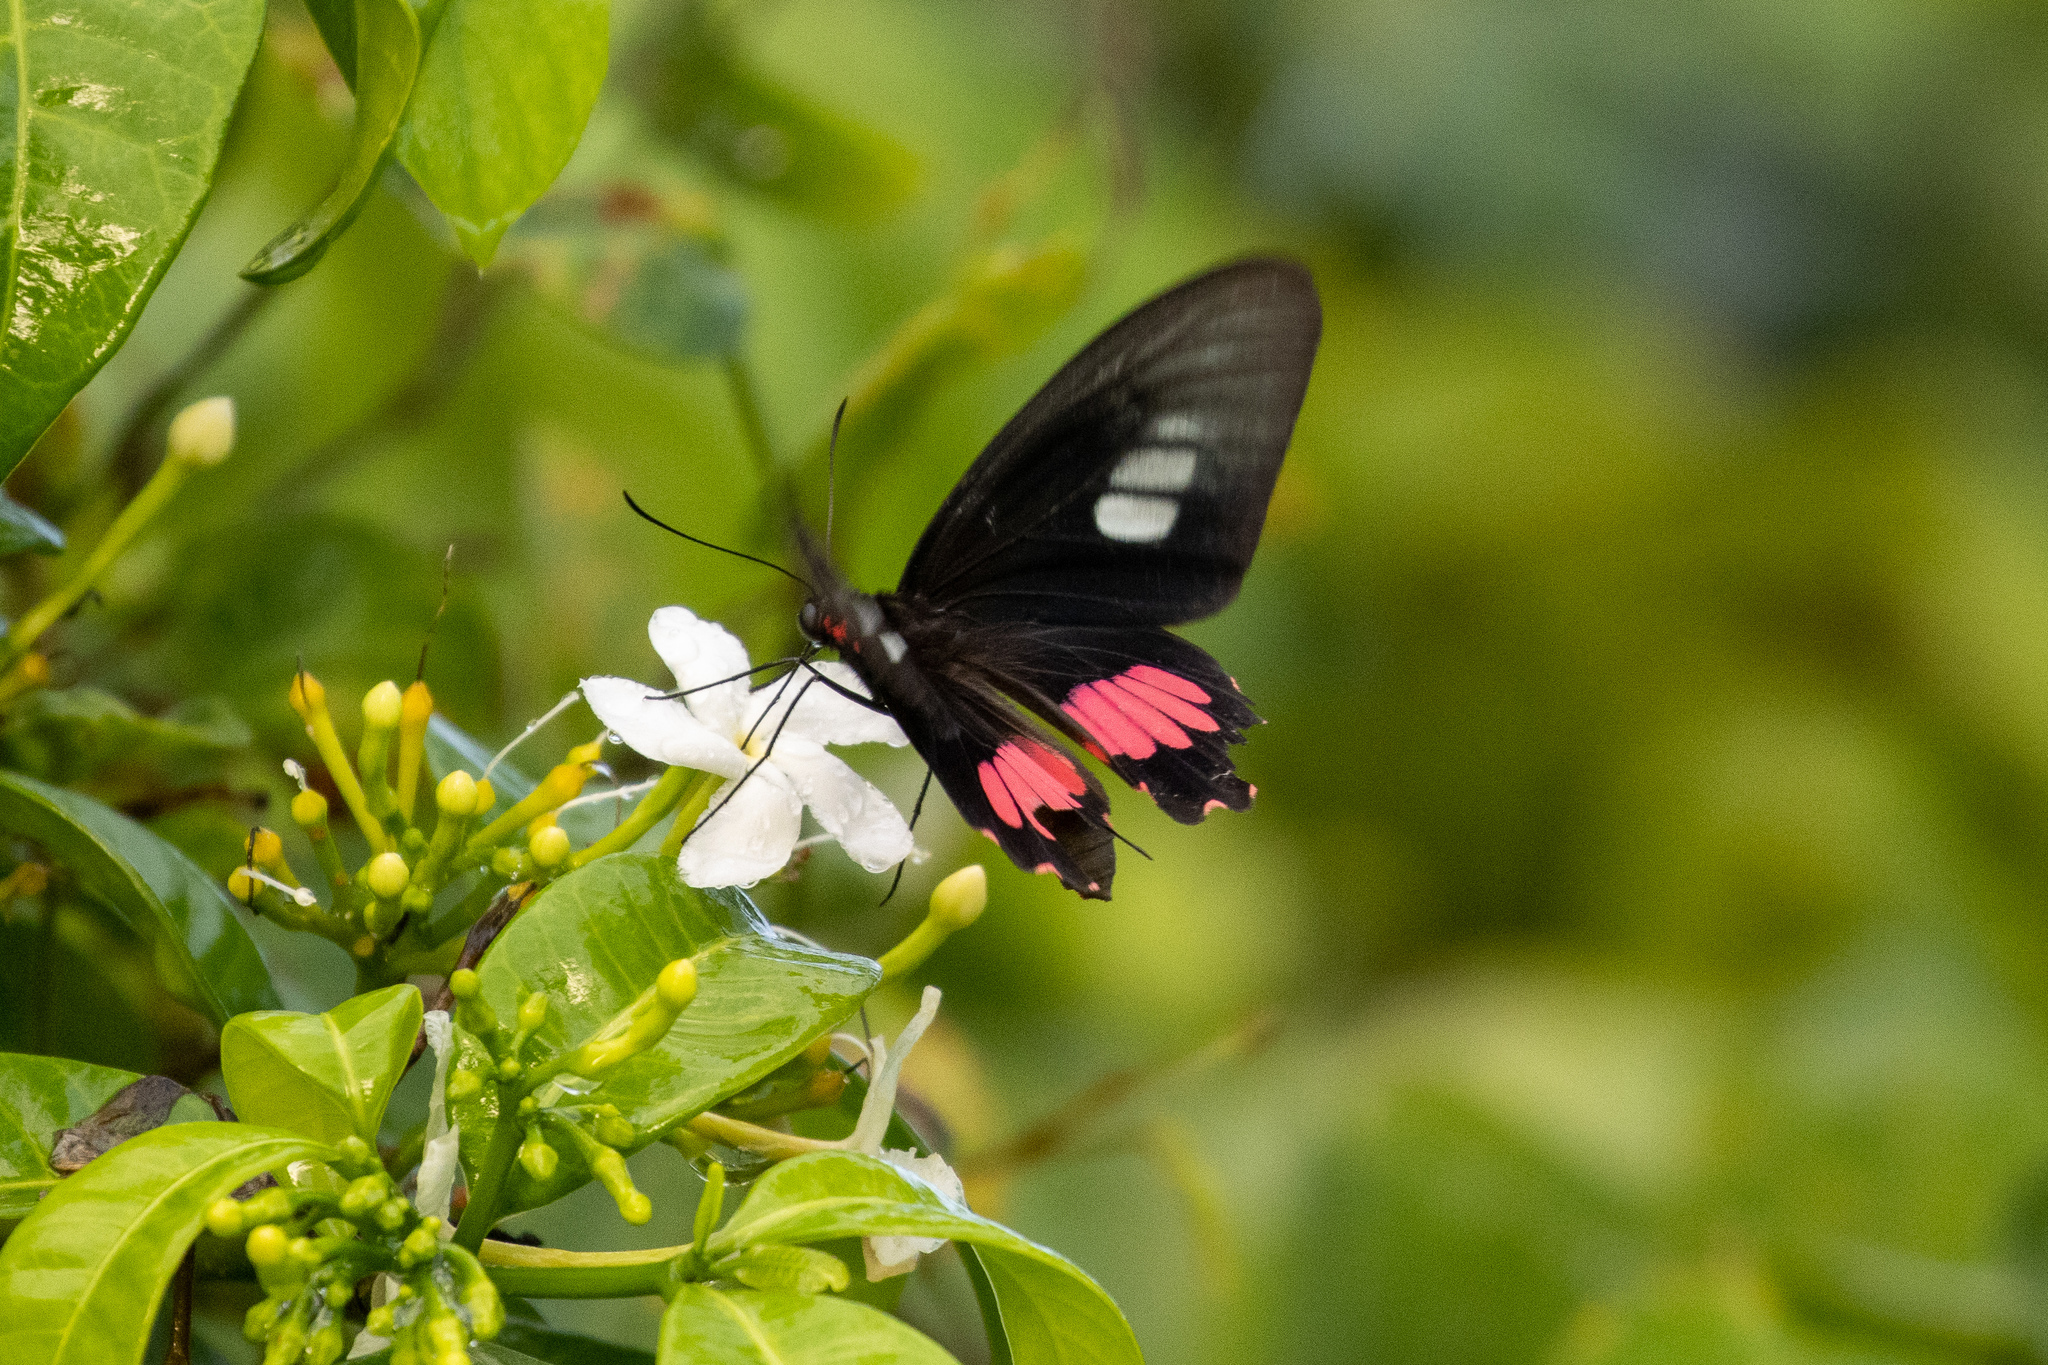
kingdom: Animalia
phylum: Arthropoda
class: Insecta
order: Lepidoptera
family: Papilionidae
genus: Parides
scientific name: Parides zacynthus
